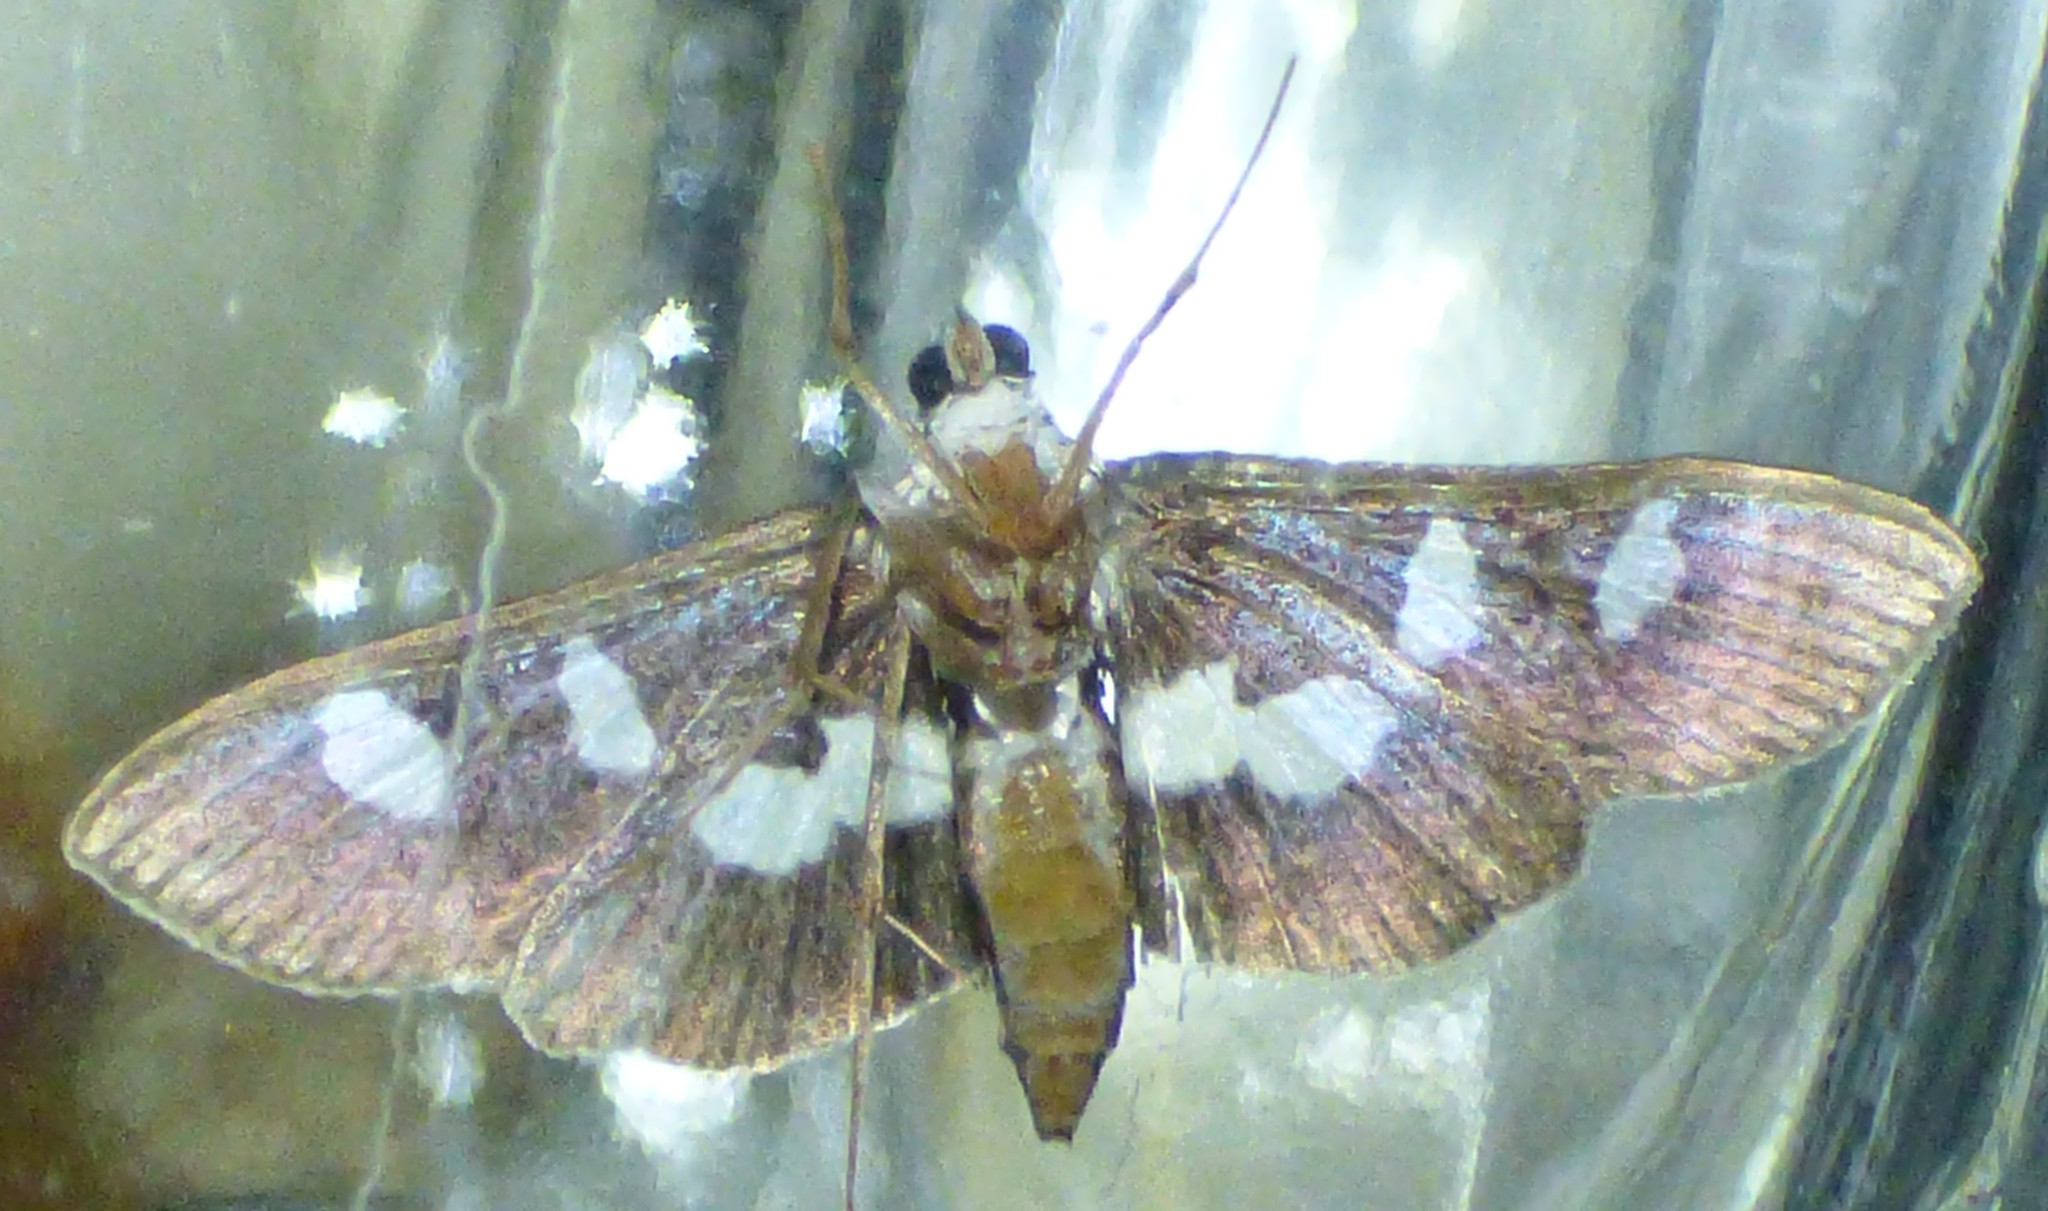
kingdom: Animalia
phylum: Arthropoda
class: Insecta
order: Lepidoptera
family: Crambidae
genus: Desmia
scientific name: Desmia
